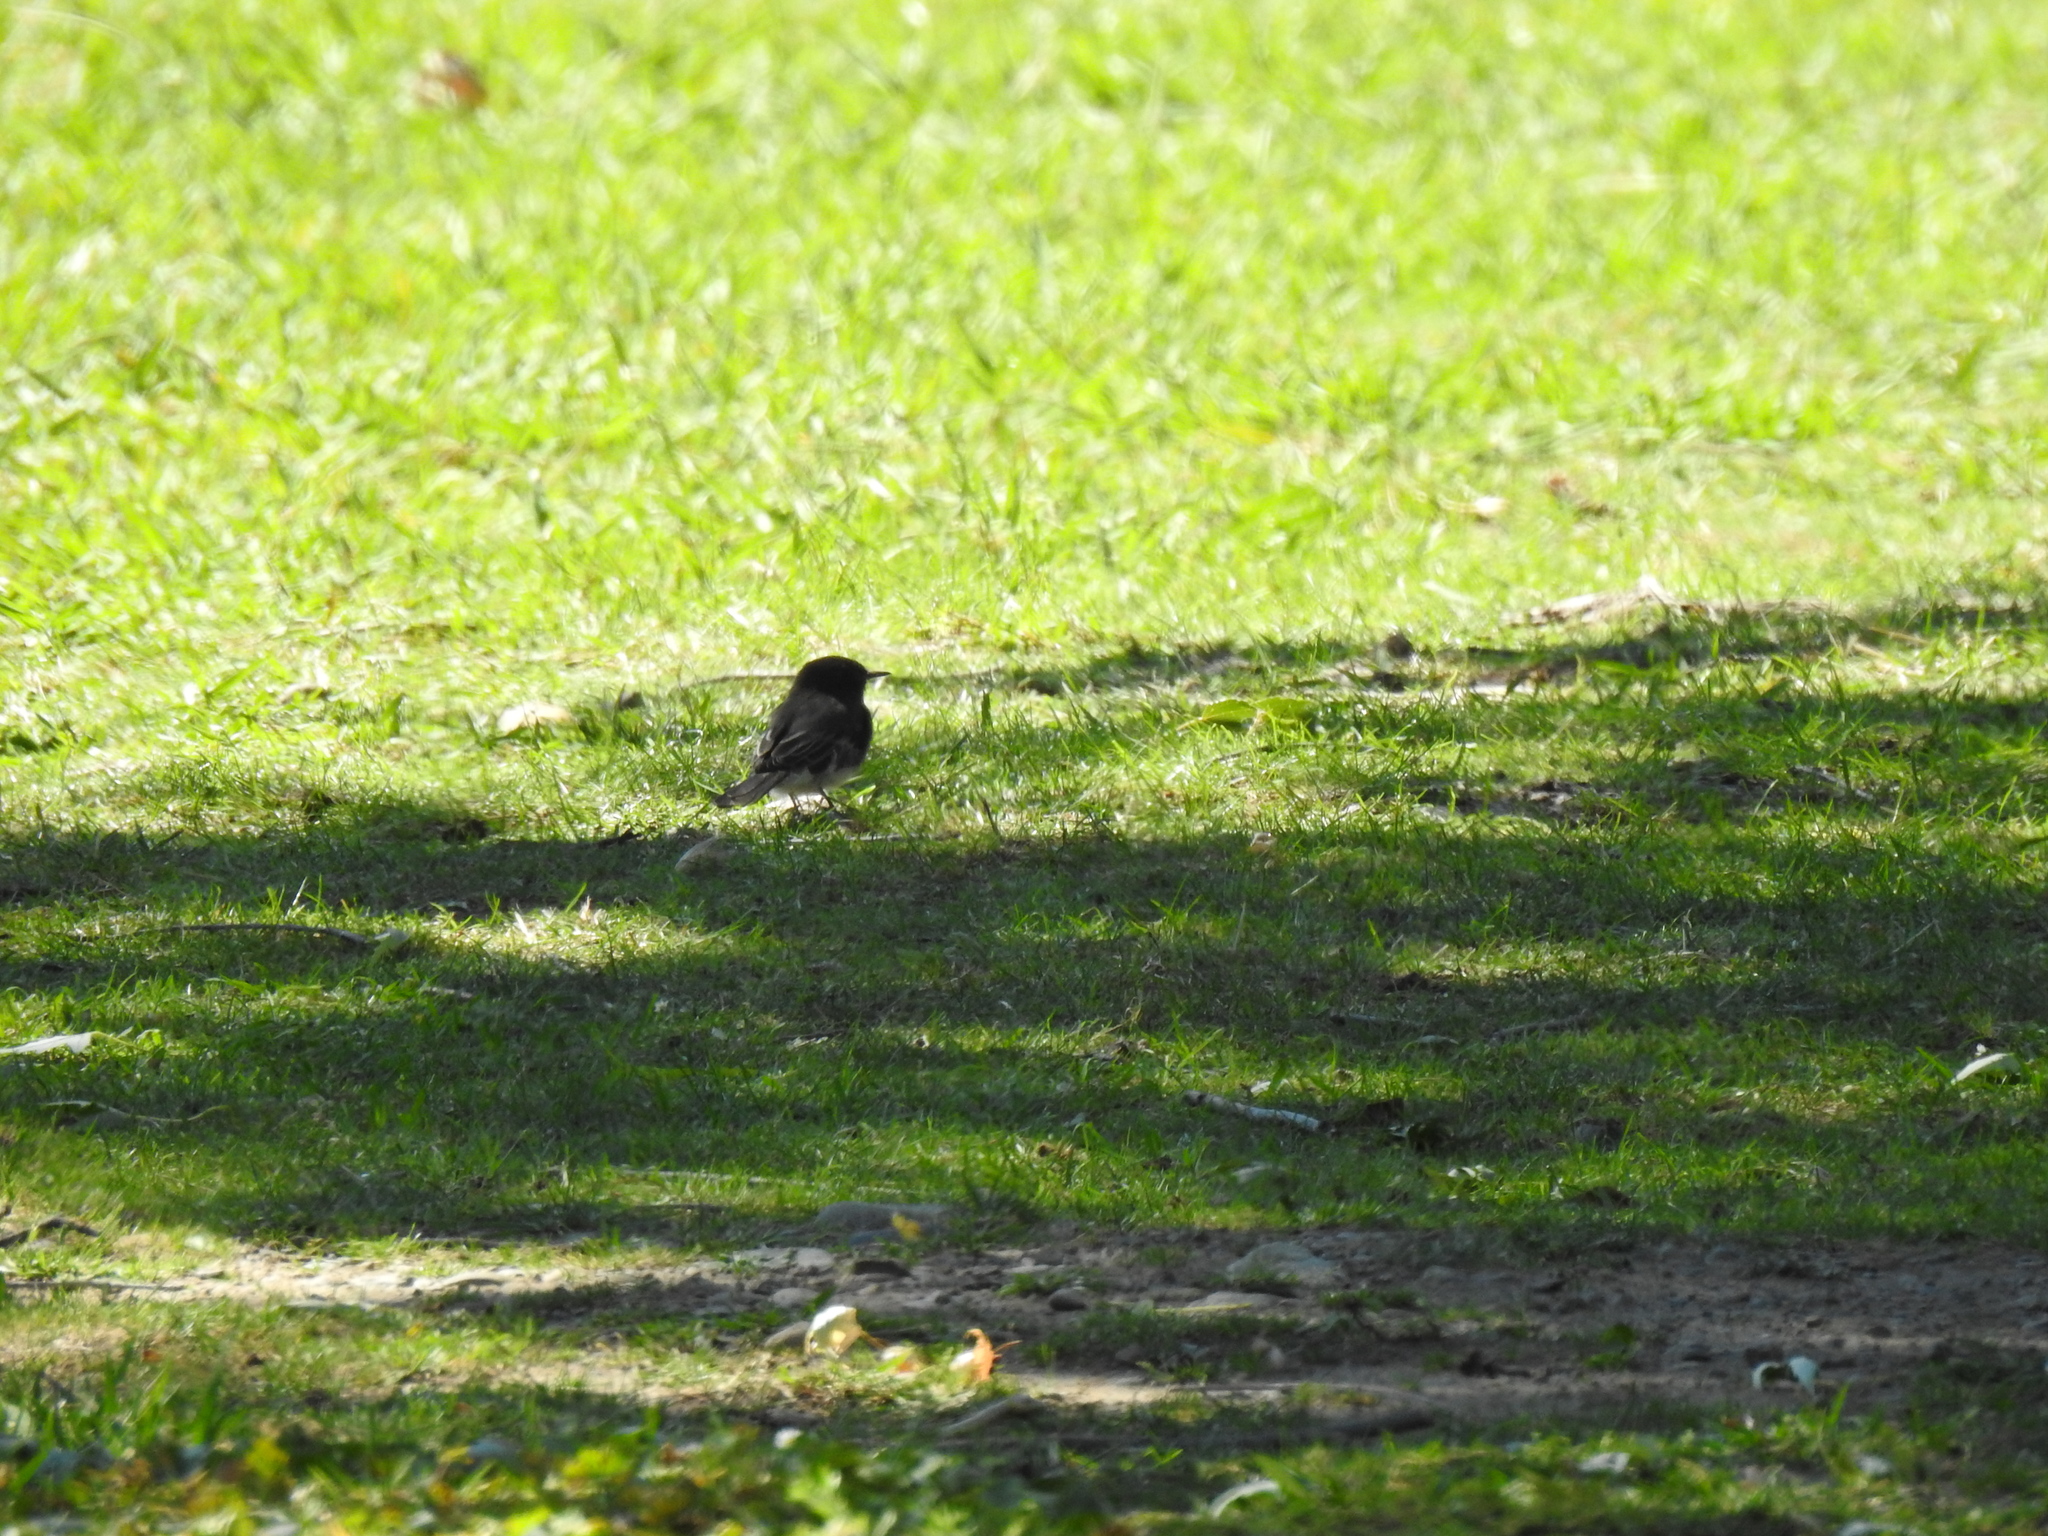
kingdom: Animalia
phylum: Chordata
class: Aves
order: Passeriformes
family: Tyrannidae
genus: Sayornis
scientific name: Sayornis nigricans
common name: Black phoebe
